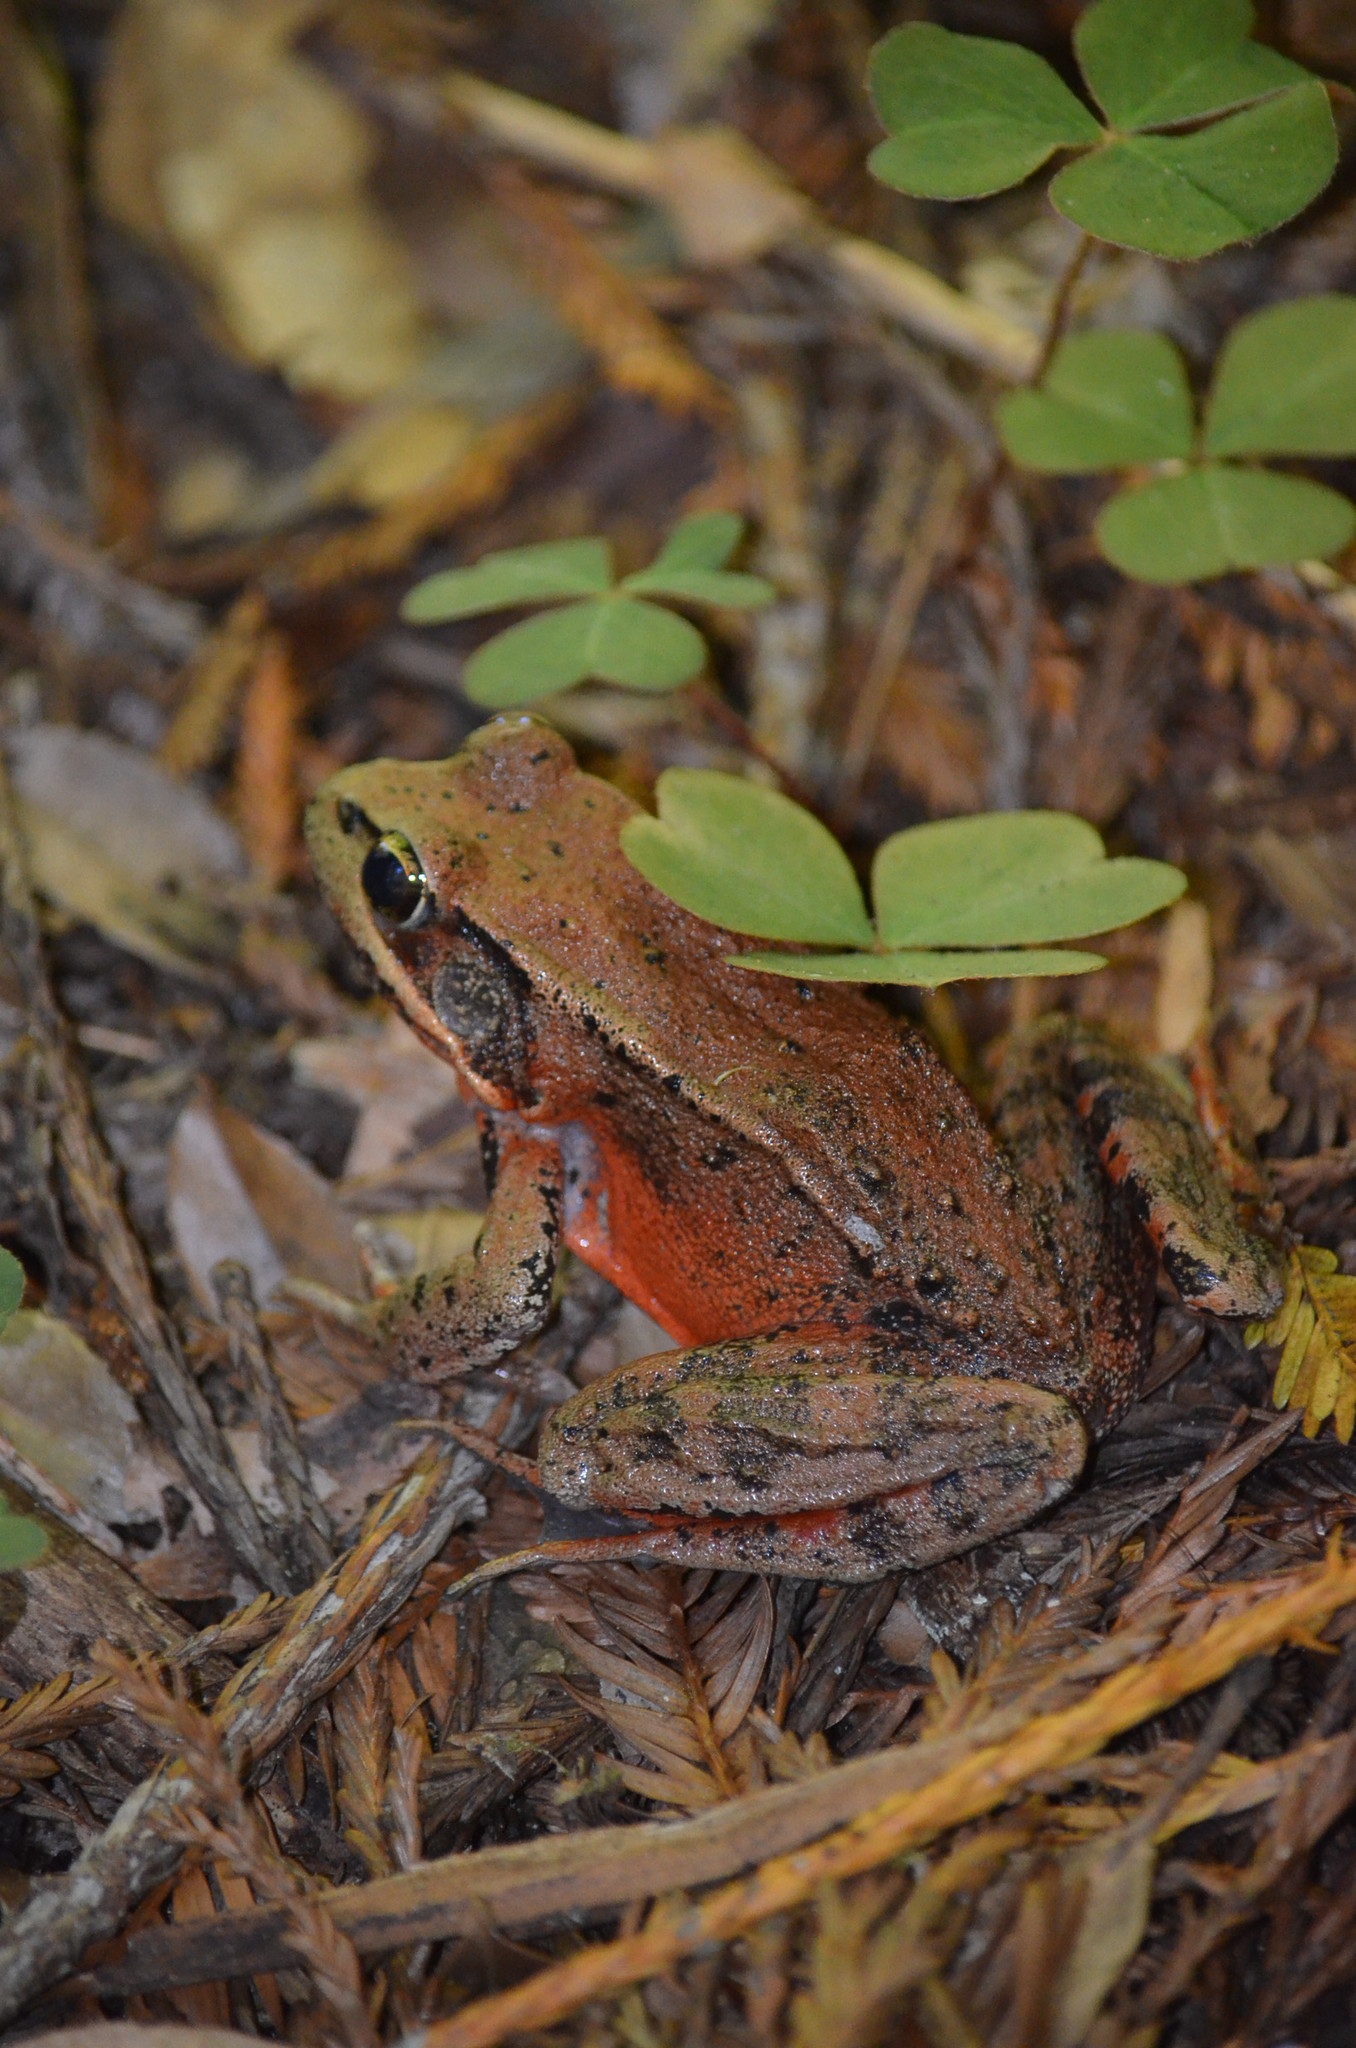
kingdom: Animalia
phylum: Chordata
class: Amphibia
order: Anura
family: Ranidae
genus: Rana
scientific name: Rana aurora
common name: Red-legged frog
